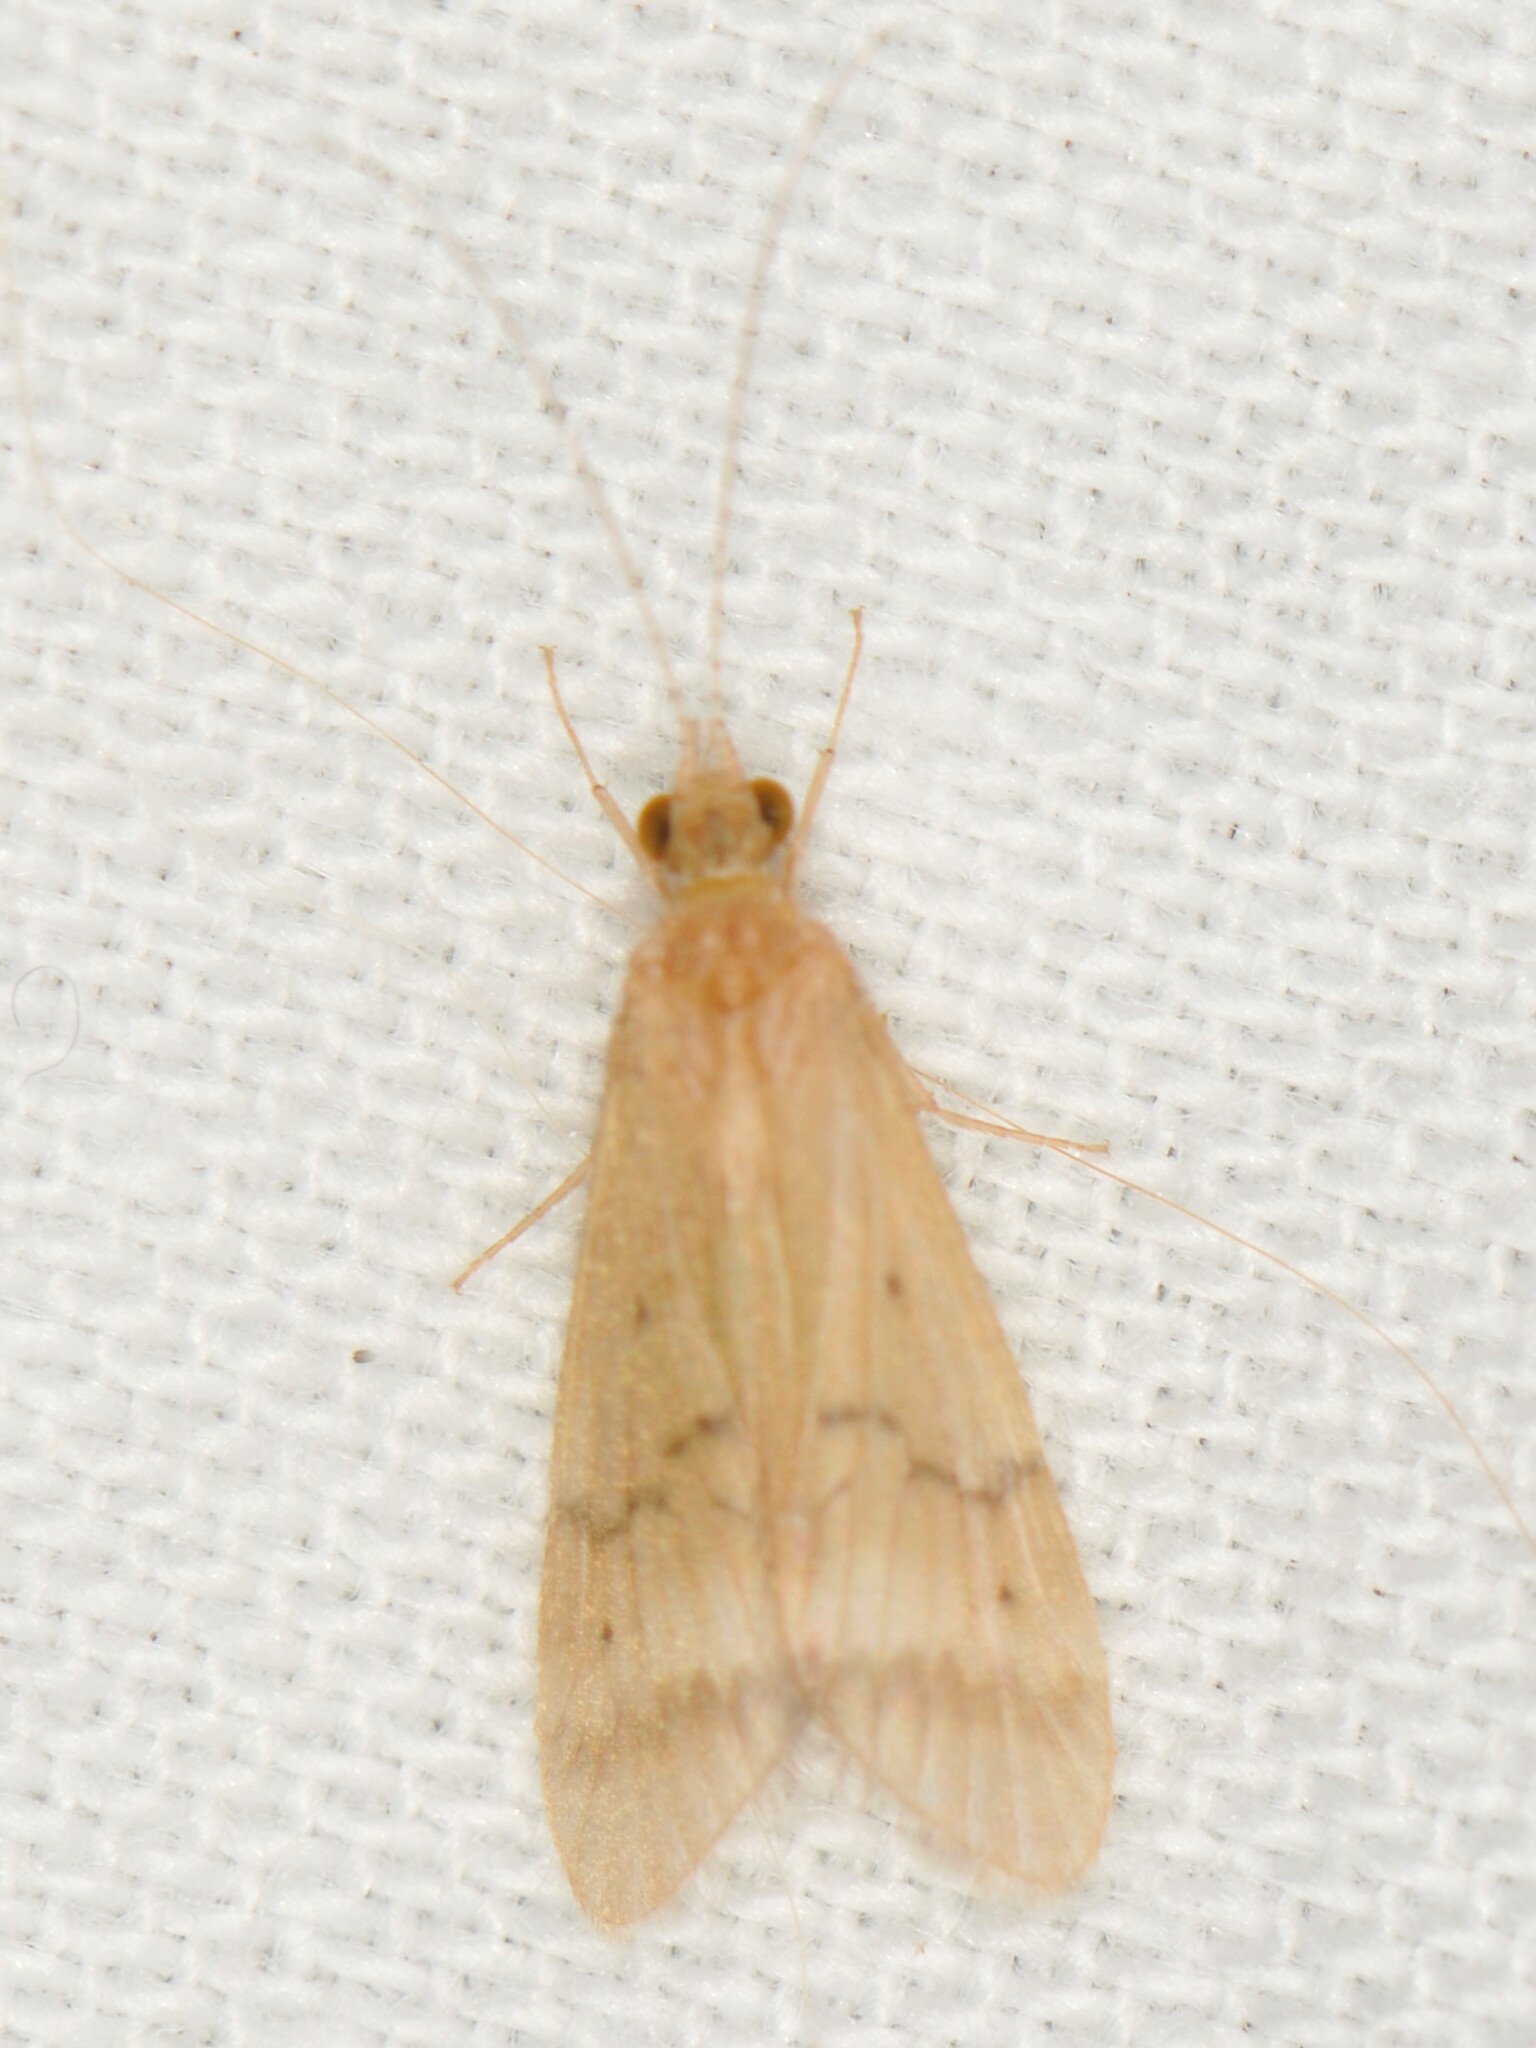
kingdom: Animalia
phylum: Arthropoda
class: Insecta
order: Trichoptera
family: Hydropsychidae
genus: Smicridea
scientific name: Smicridea signata
